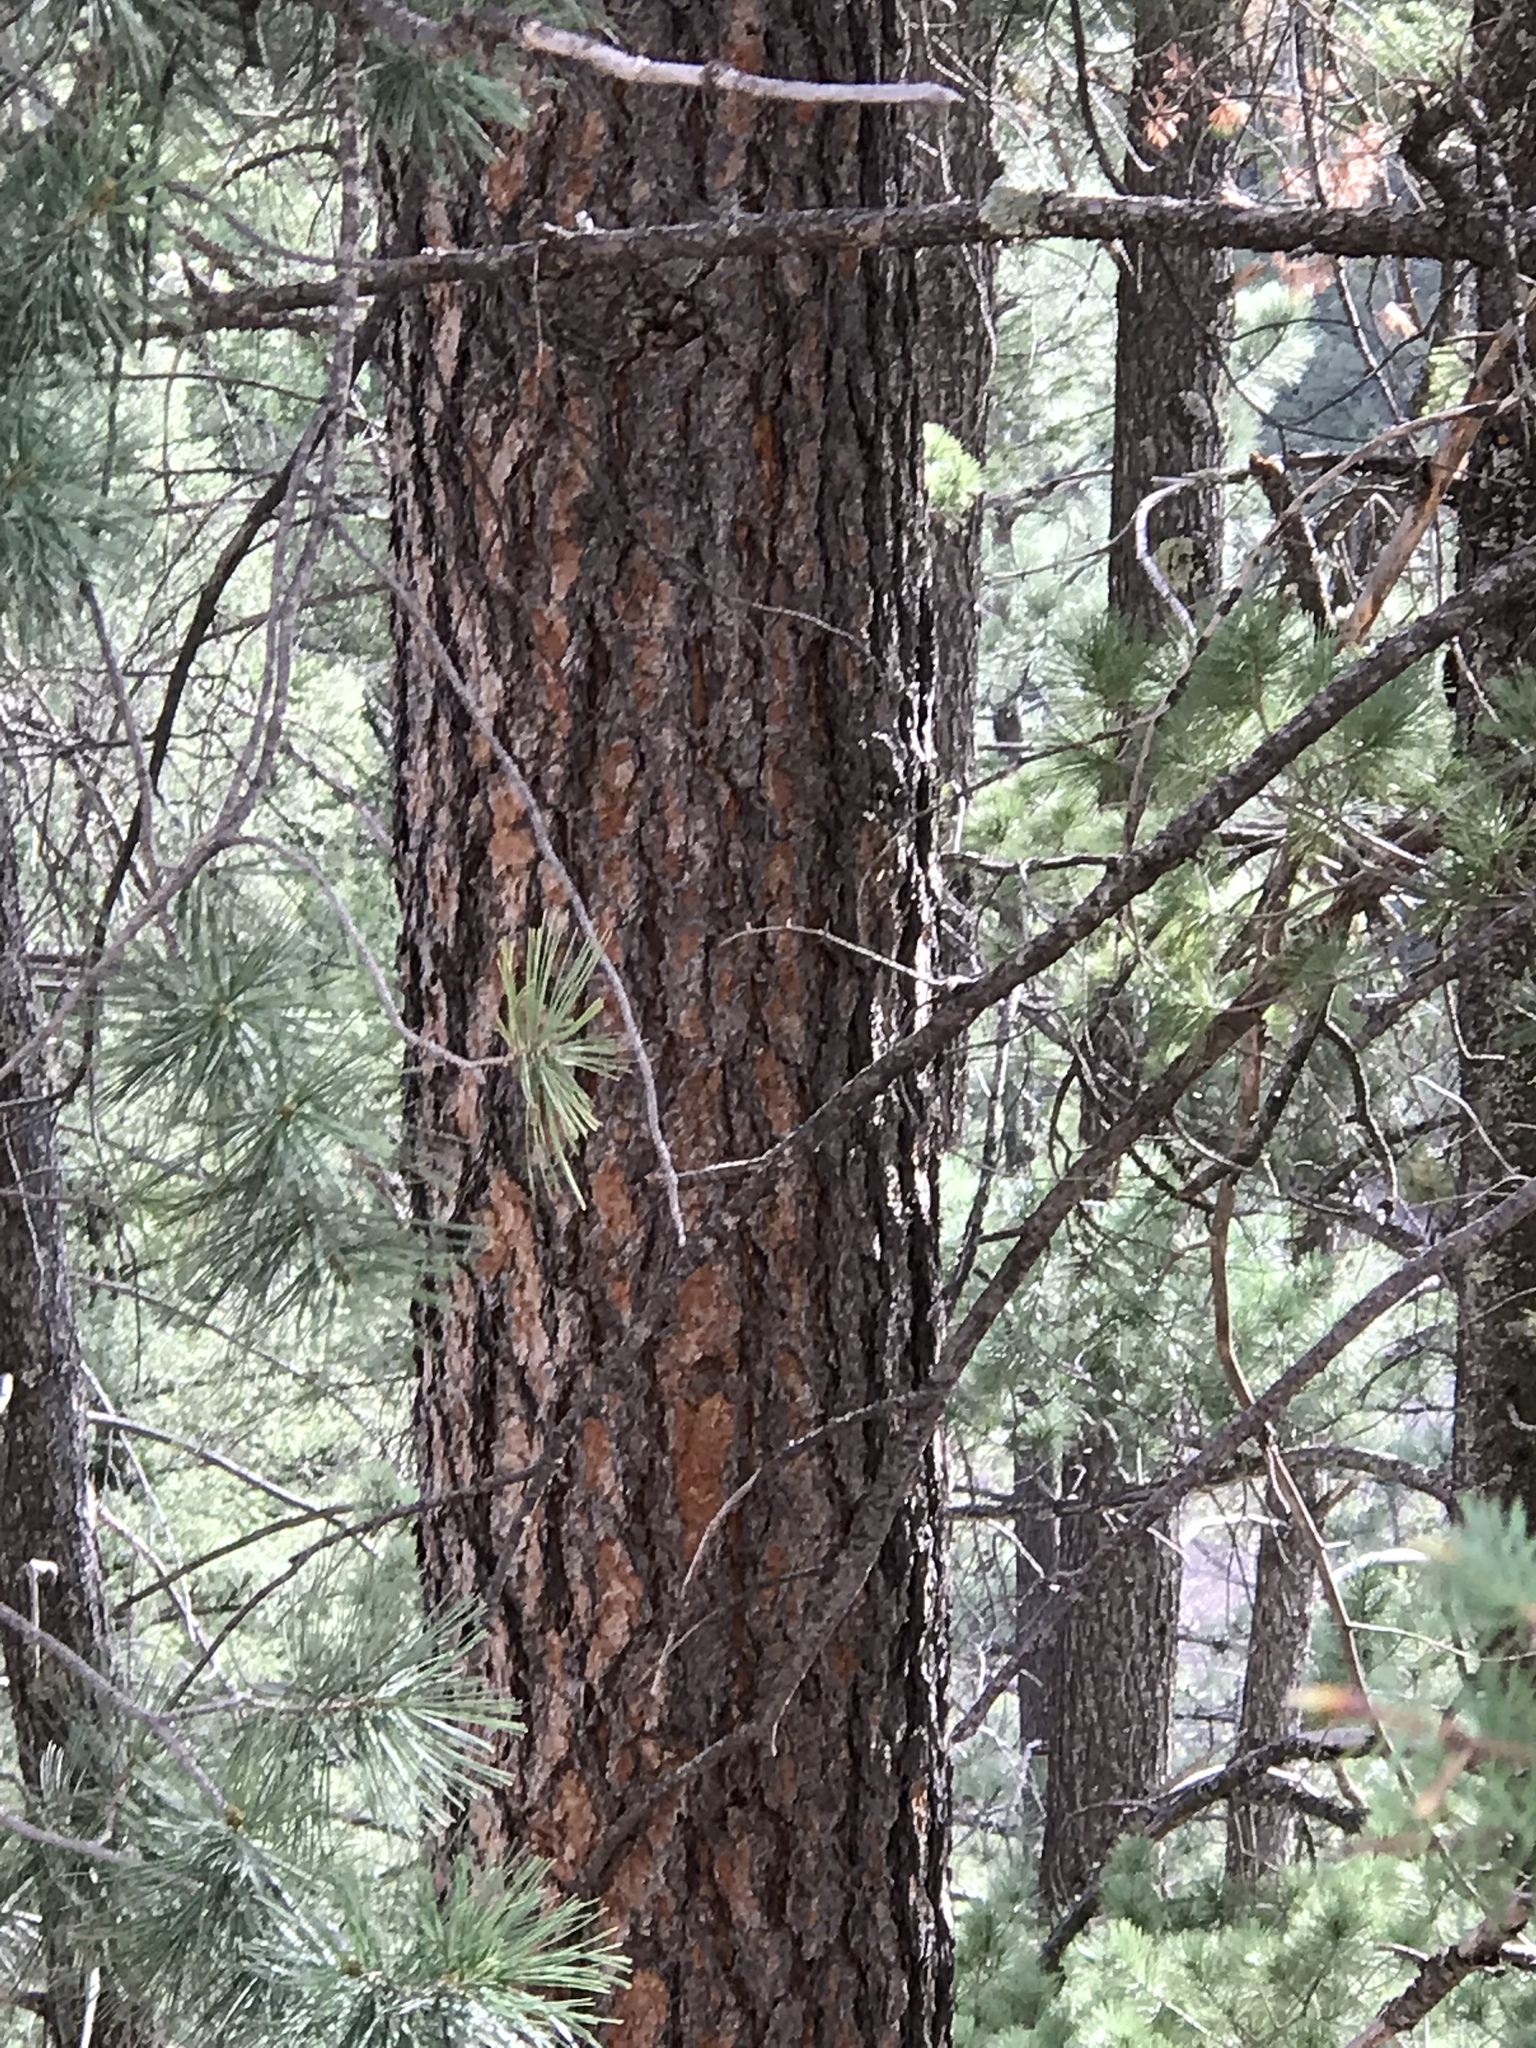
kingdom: Plantae
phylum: Tracheophyta
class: Pinopsida
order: Pinales
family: Pinaceae
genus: Pinus
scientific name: Pinus ponderosa
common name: Western yellow-pine
